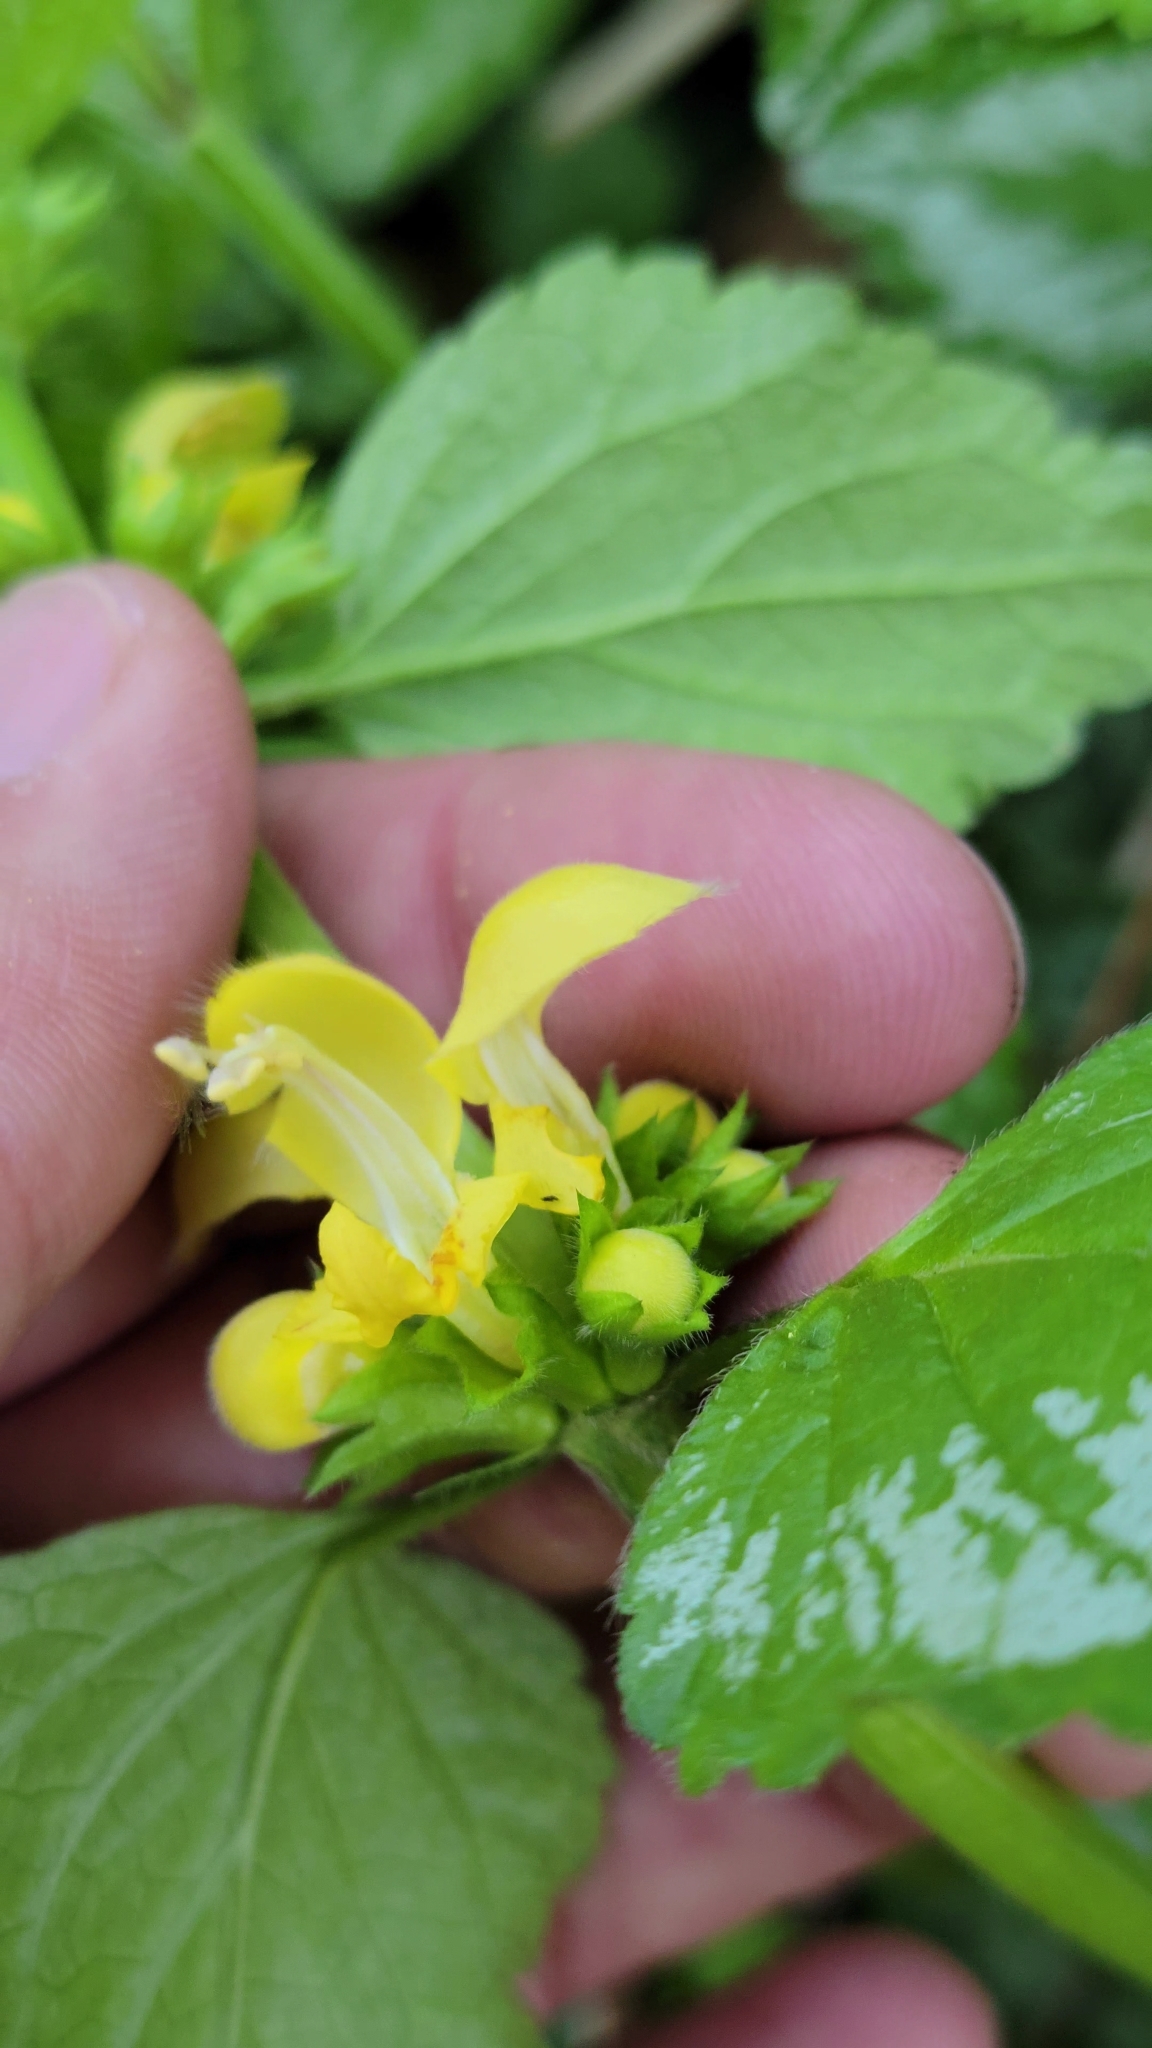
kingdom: Plantae
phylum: Tracheophyta
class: Magnoliopsida
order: Lamiales
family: Lamiaceae
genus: Lamium
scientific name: Lamium galeobdolon
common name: Yellow archangel
